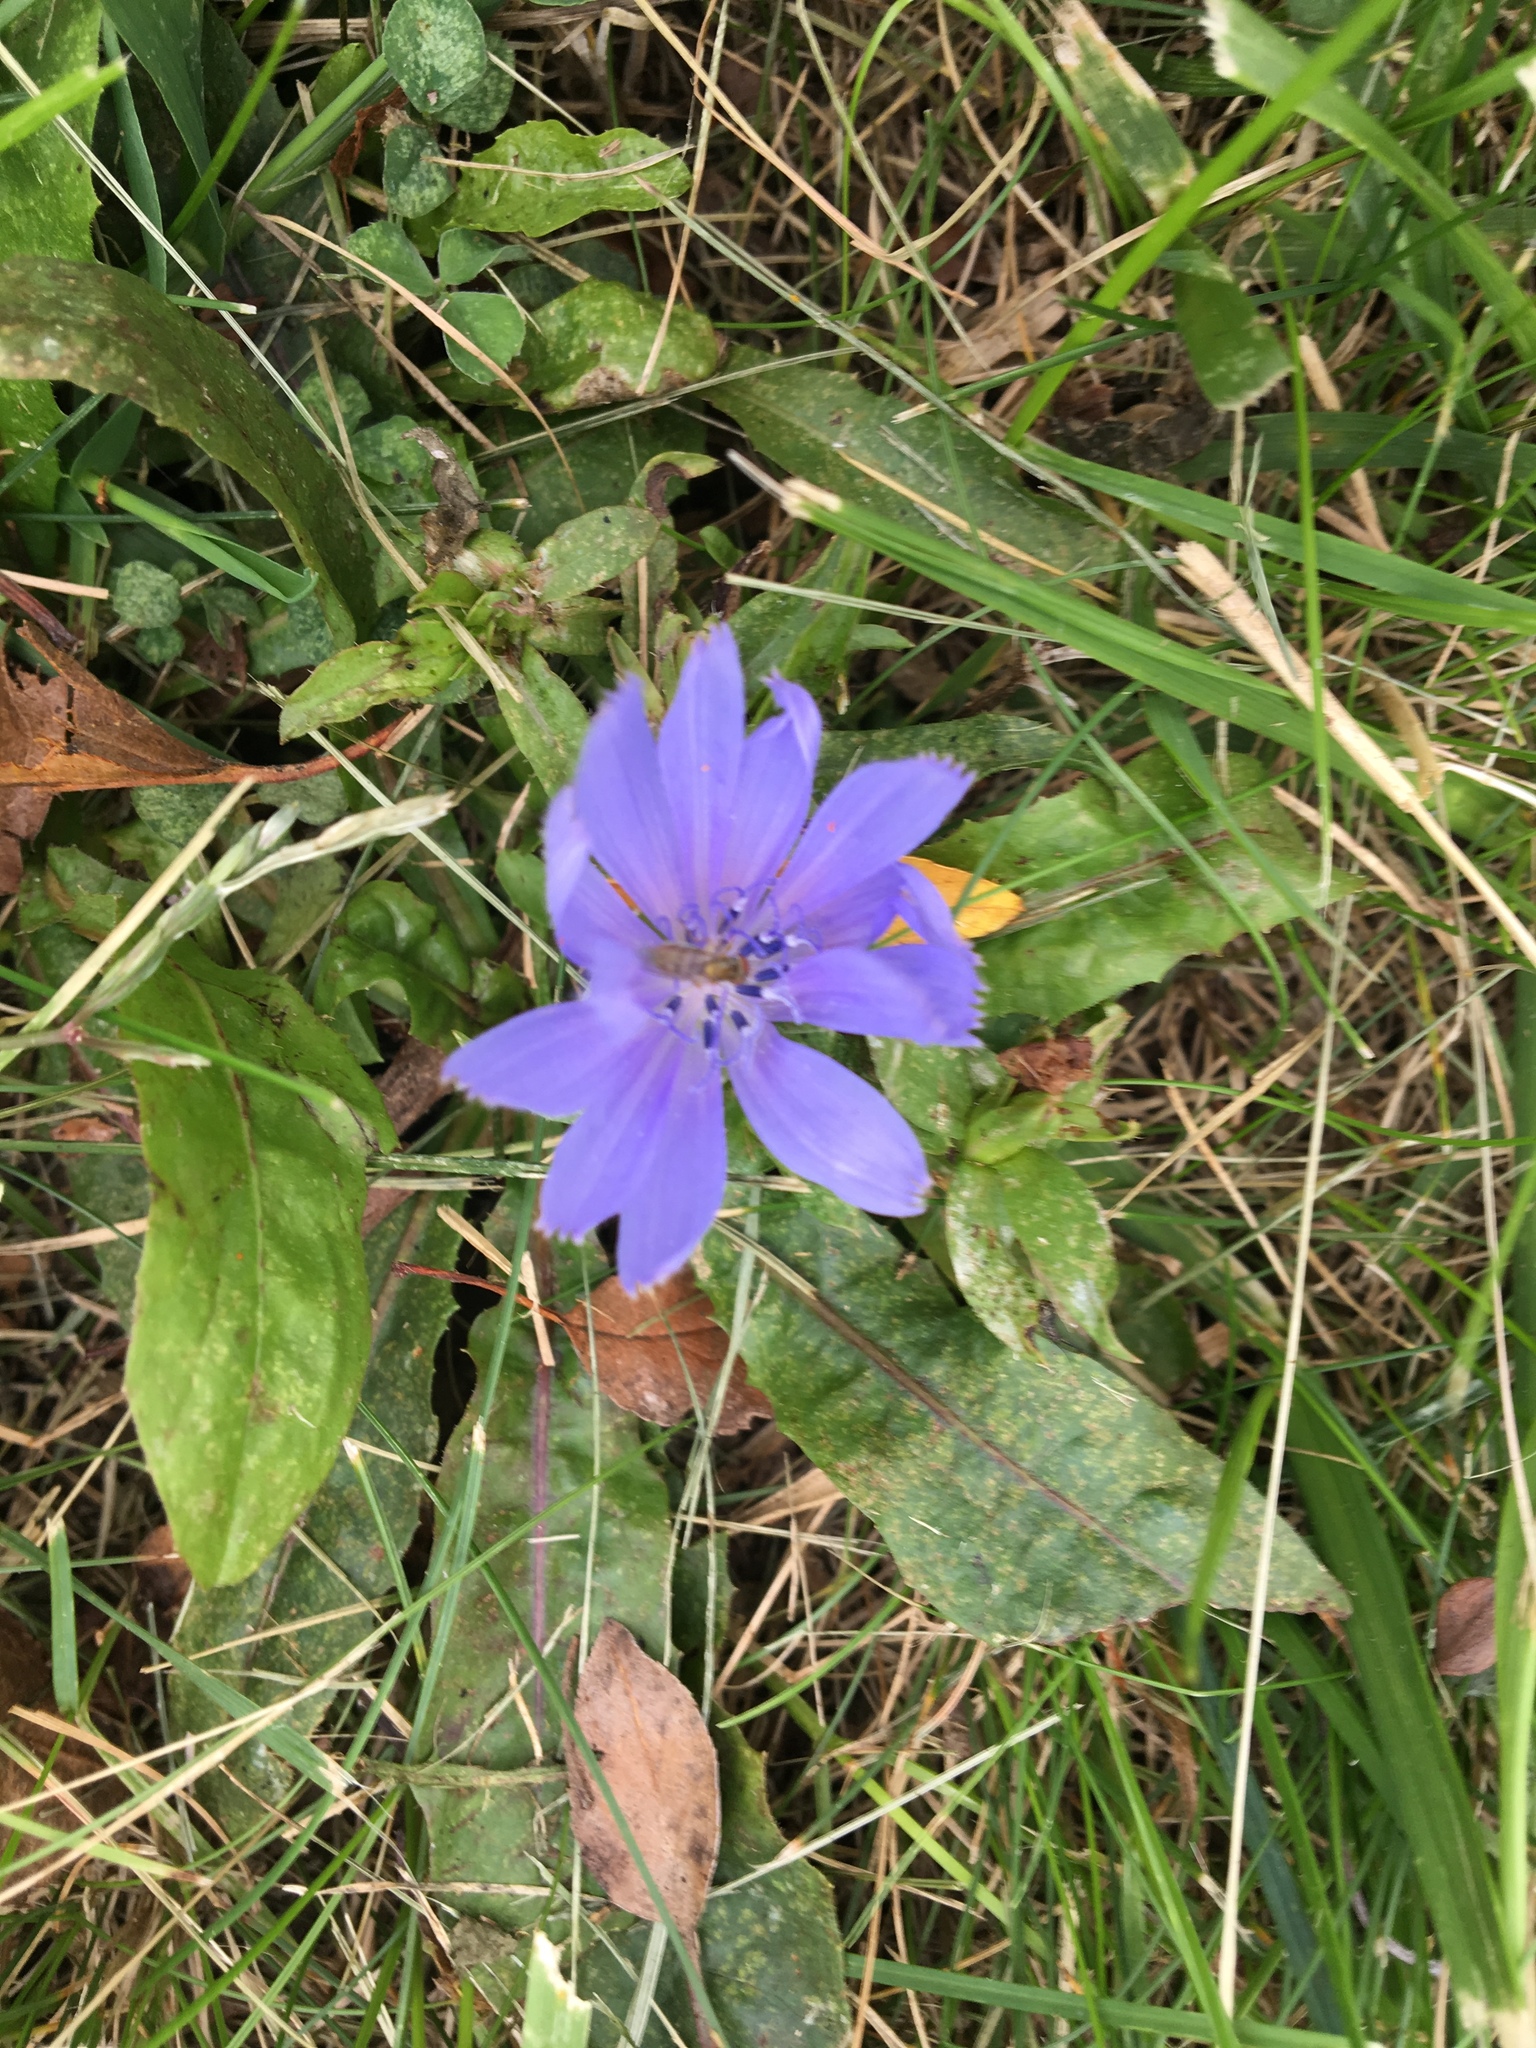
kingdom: Plantae
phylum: Tracheophyta
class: Magnoliopsida
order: Asterales
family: Asteraceae
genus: Cichorium
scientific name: Cichorium intybus
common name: Chicory
